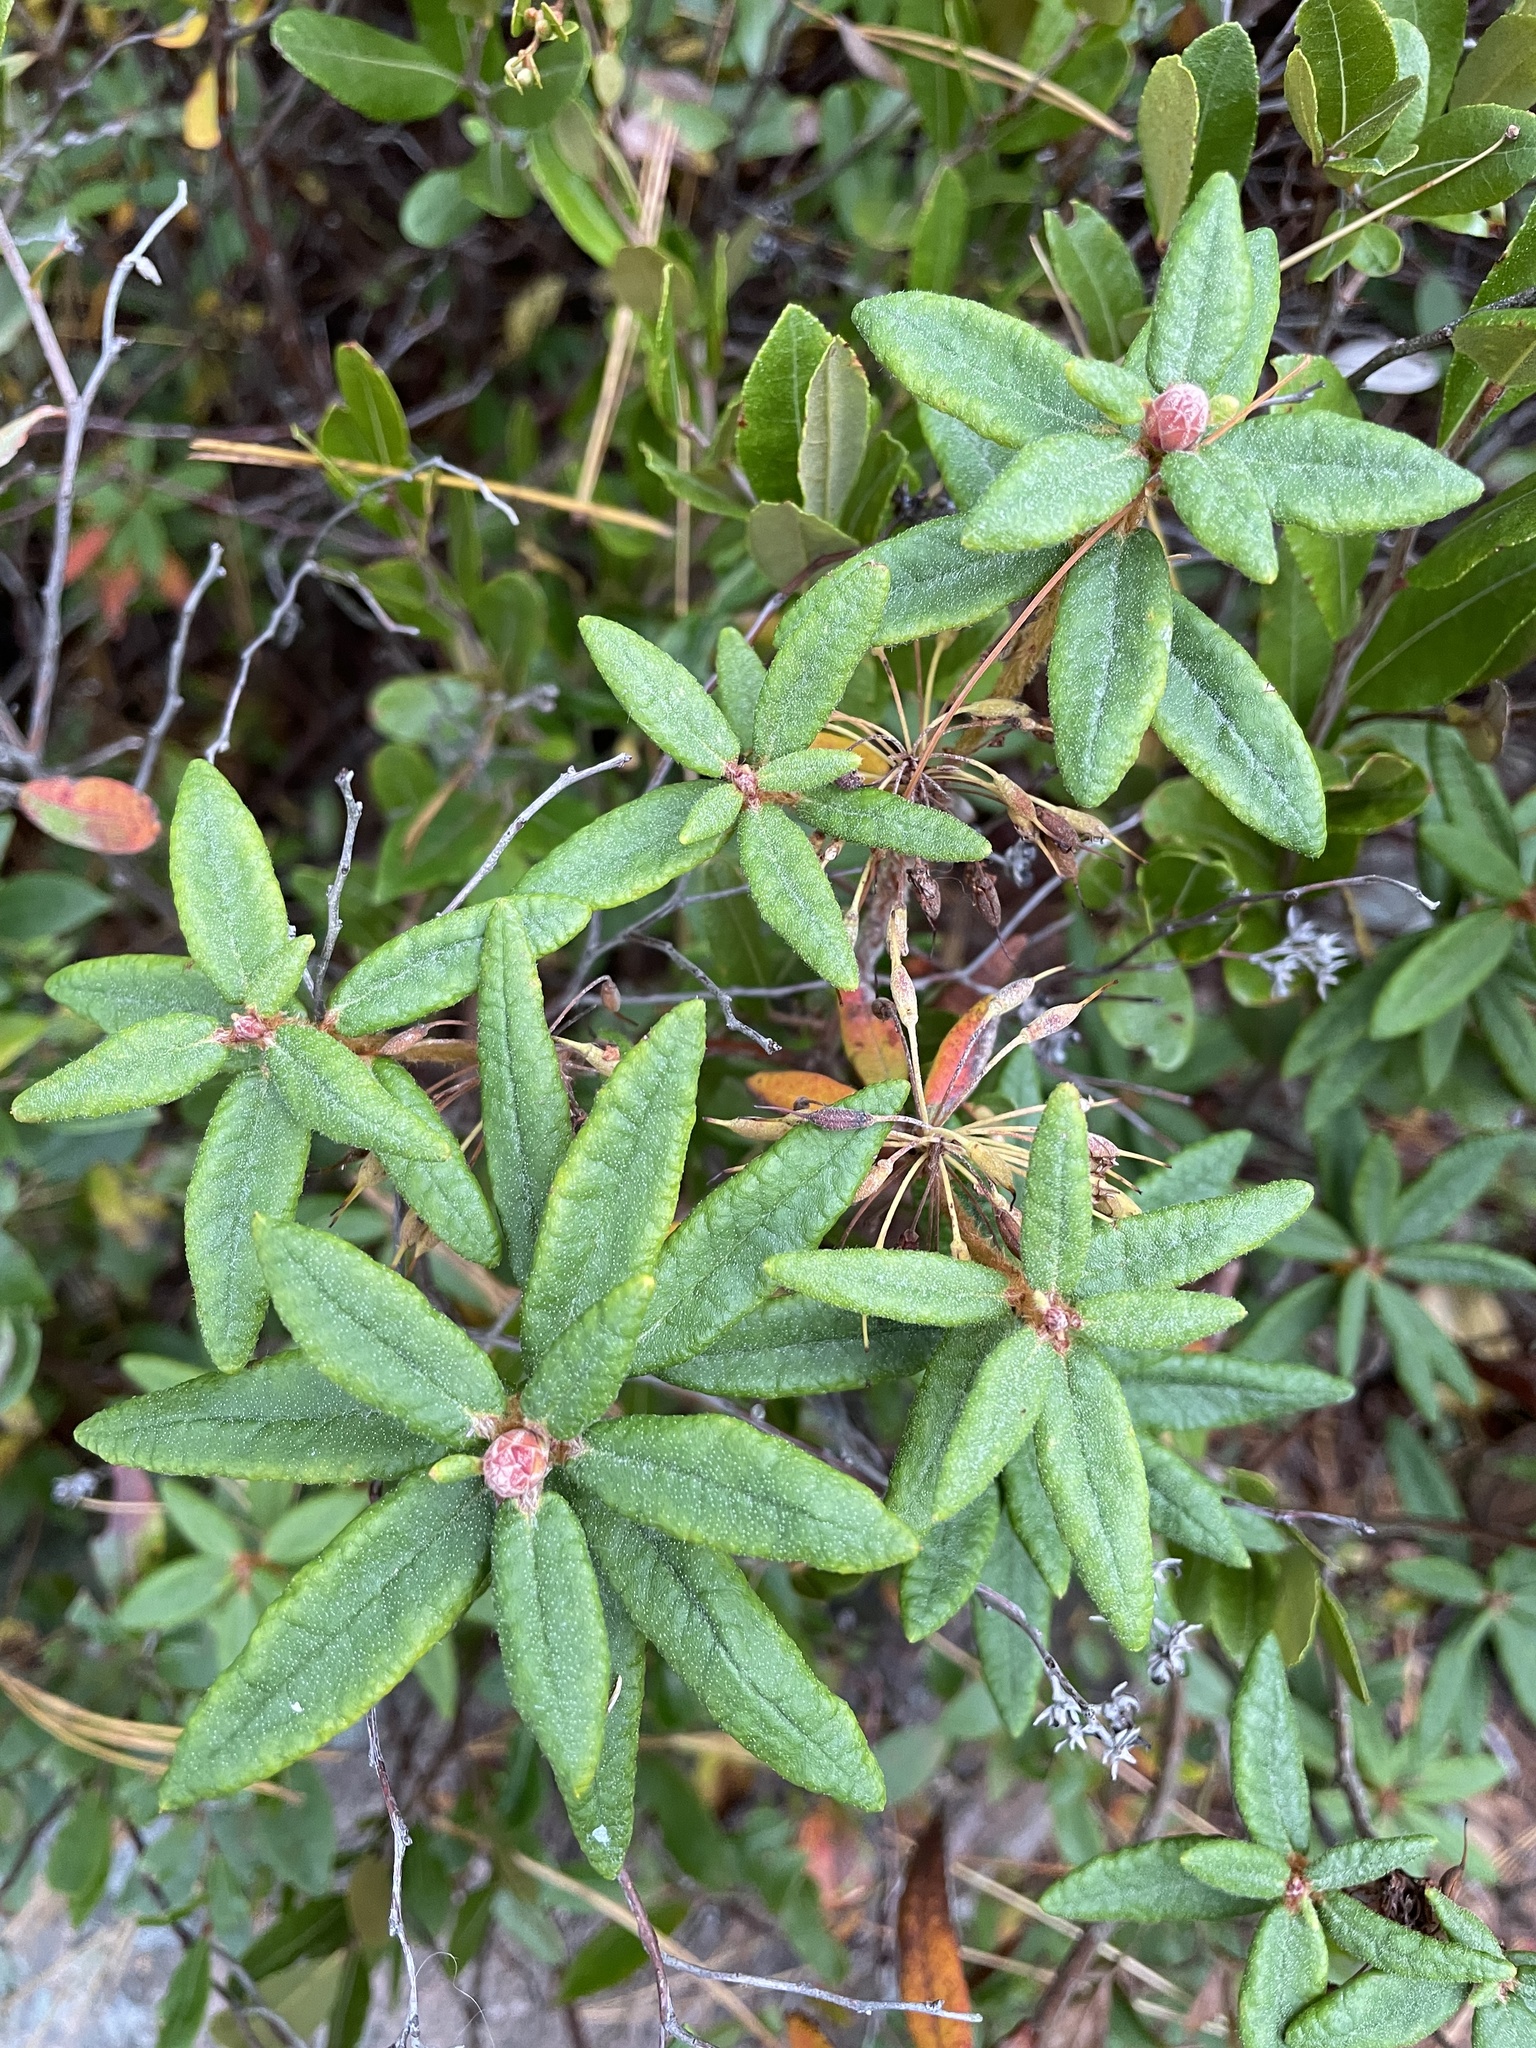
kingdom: Plantae
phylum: Tracheophyta
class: Magnoliopsida
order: Ericales
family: Ericaceae
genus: Rhododendron
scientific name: Rhododendron groenlandicum
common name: Bog labrador tea
